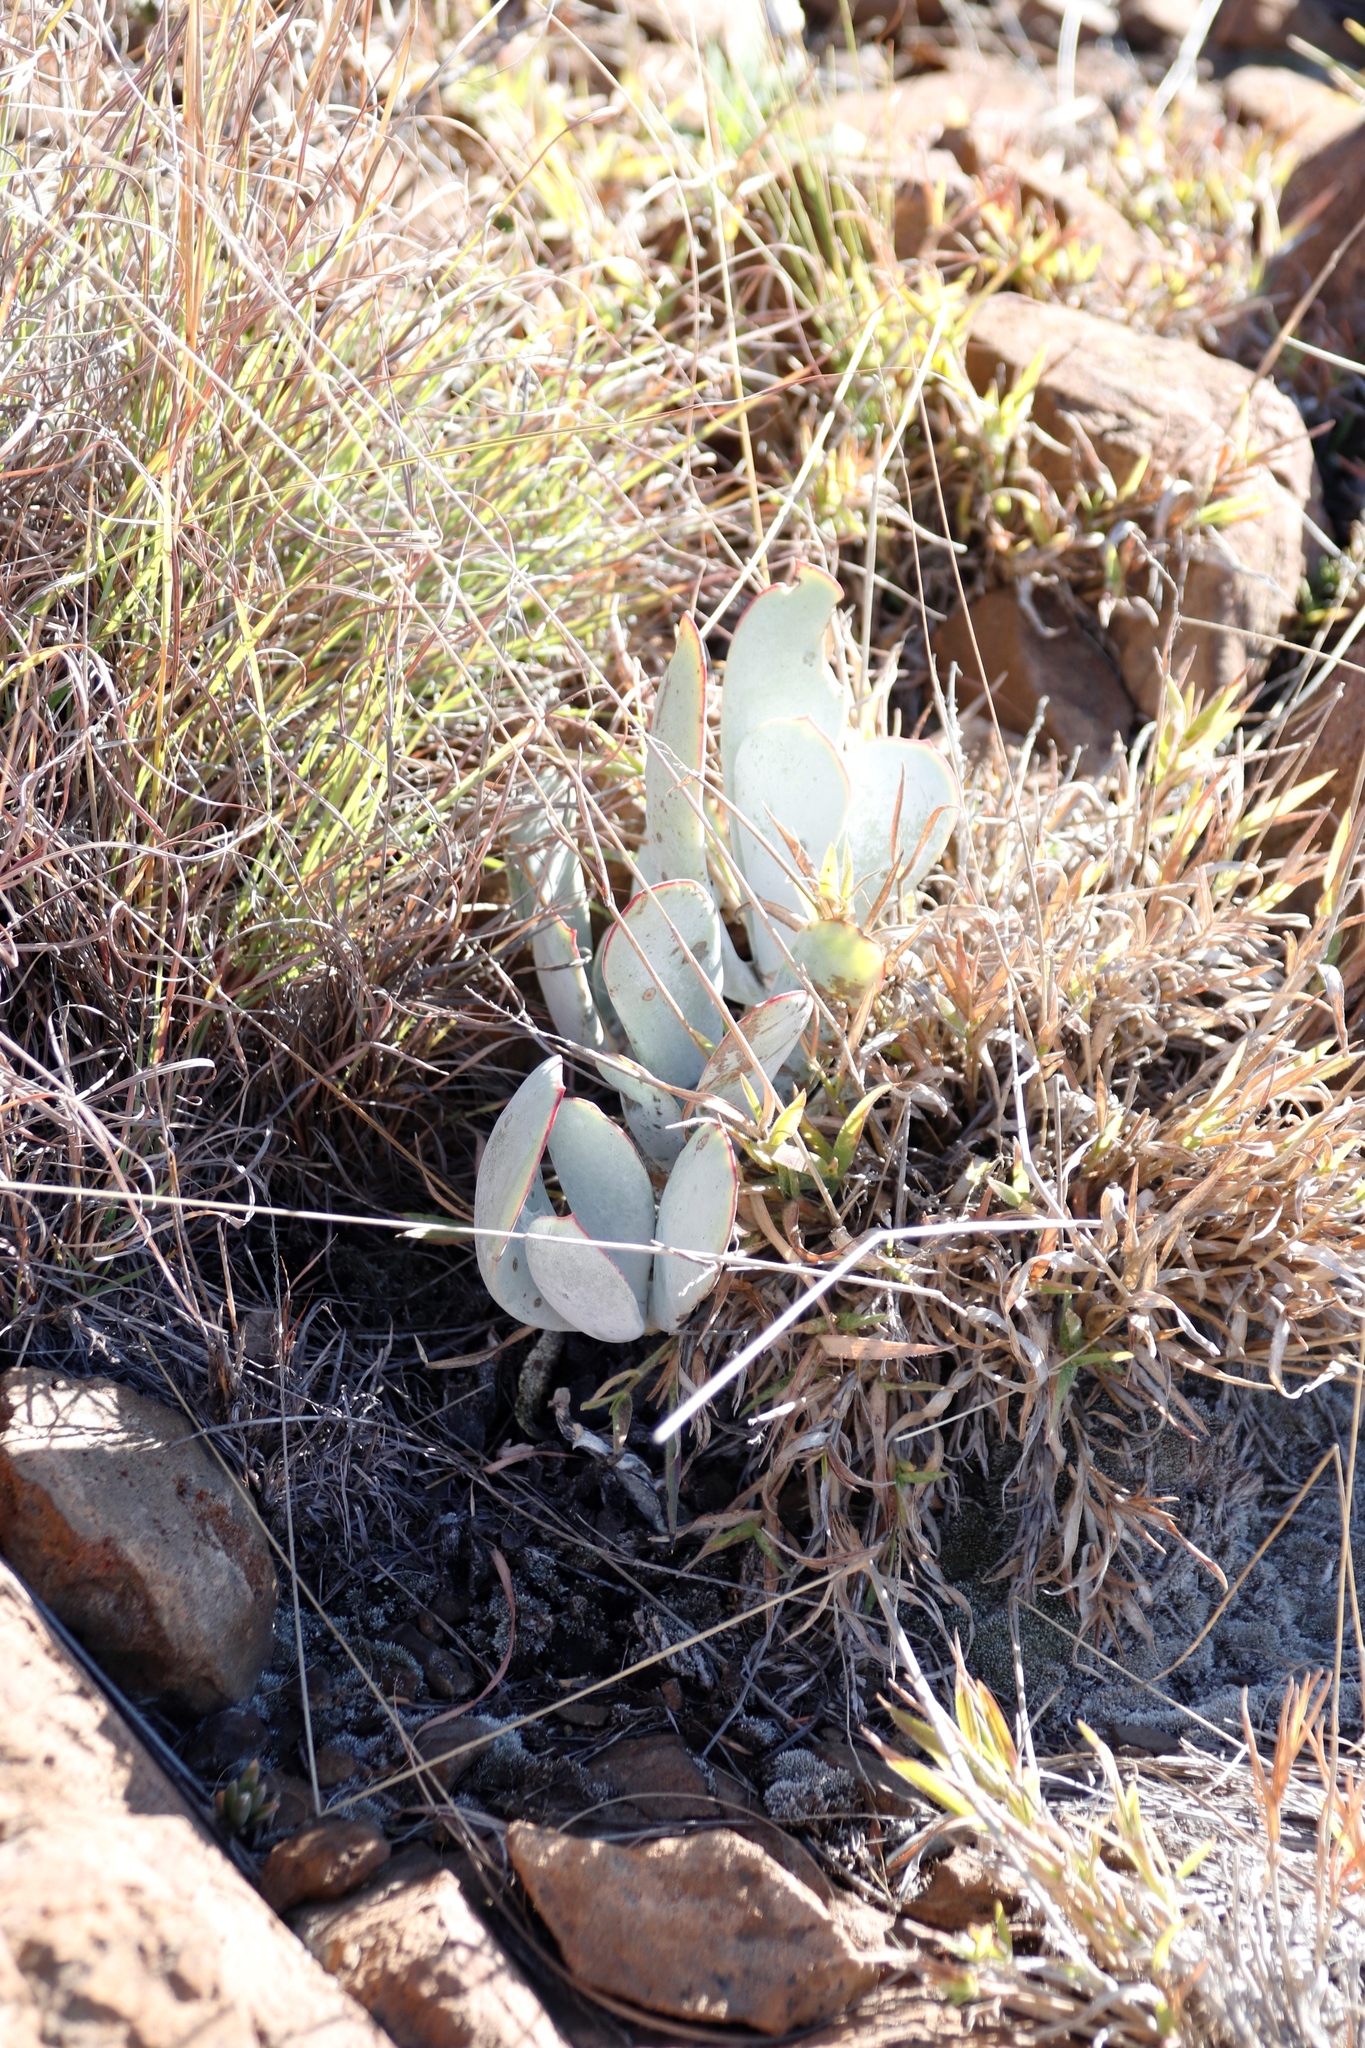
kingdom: Plantae
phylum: Tracheophyta
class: Magnoliopsida
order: Saxifragales
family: Crassulaceae
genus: Cotyledon
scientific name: Cotyledon orbiculata
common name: Pig's ear
